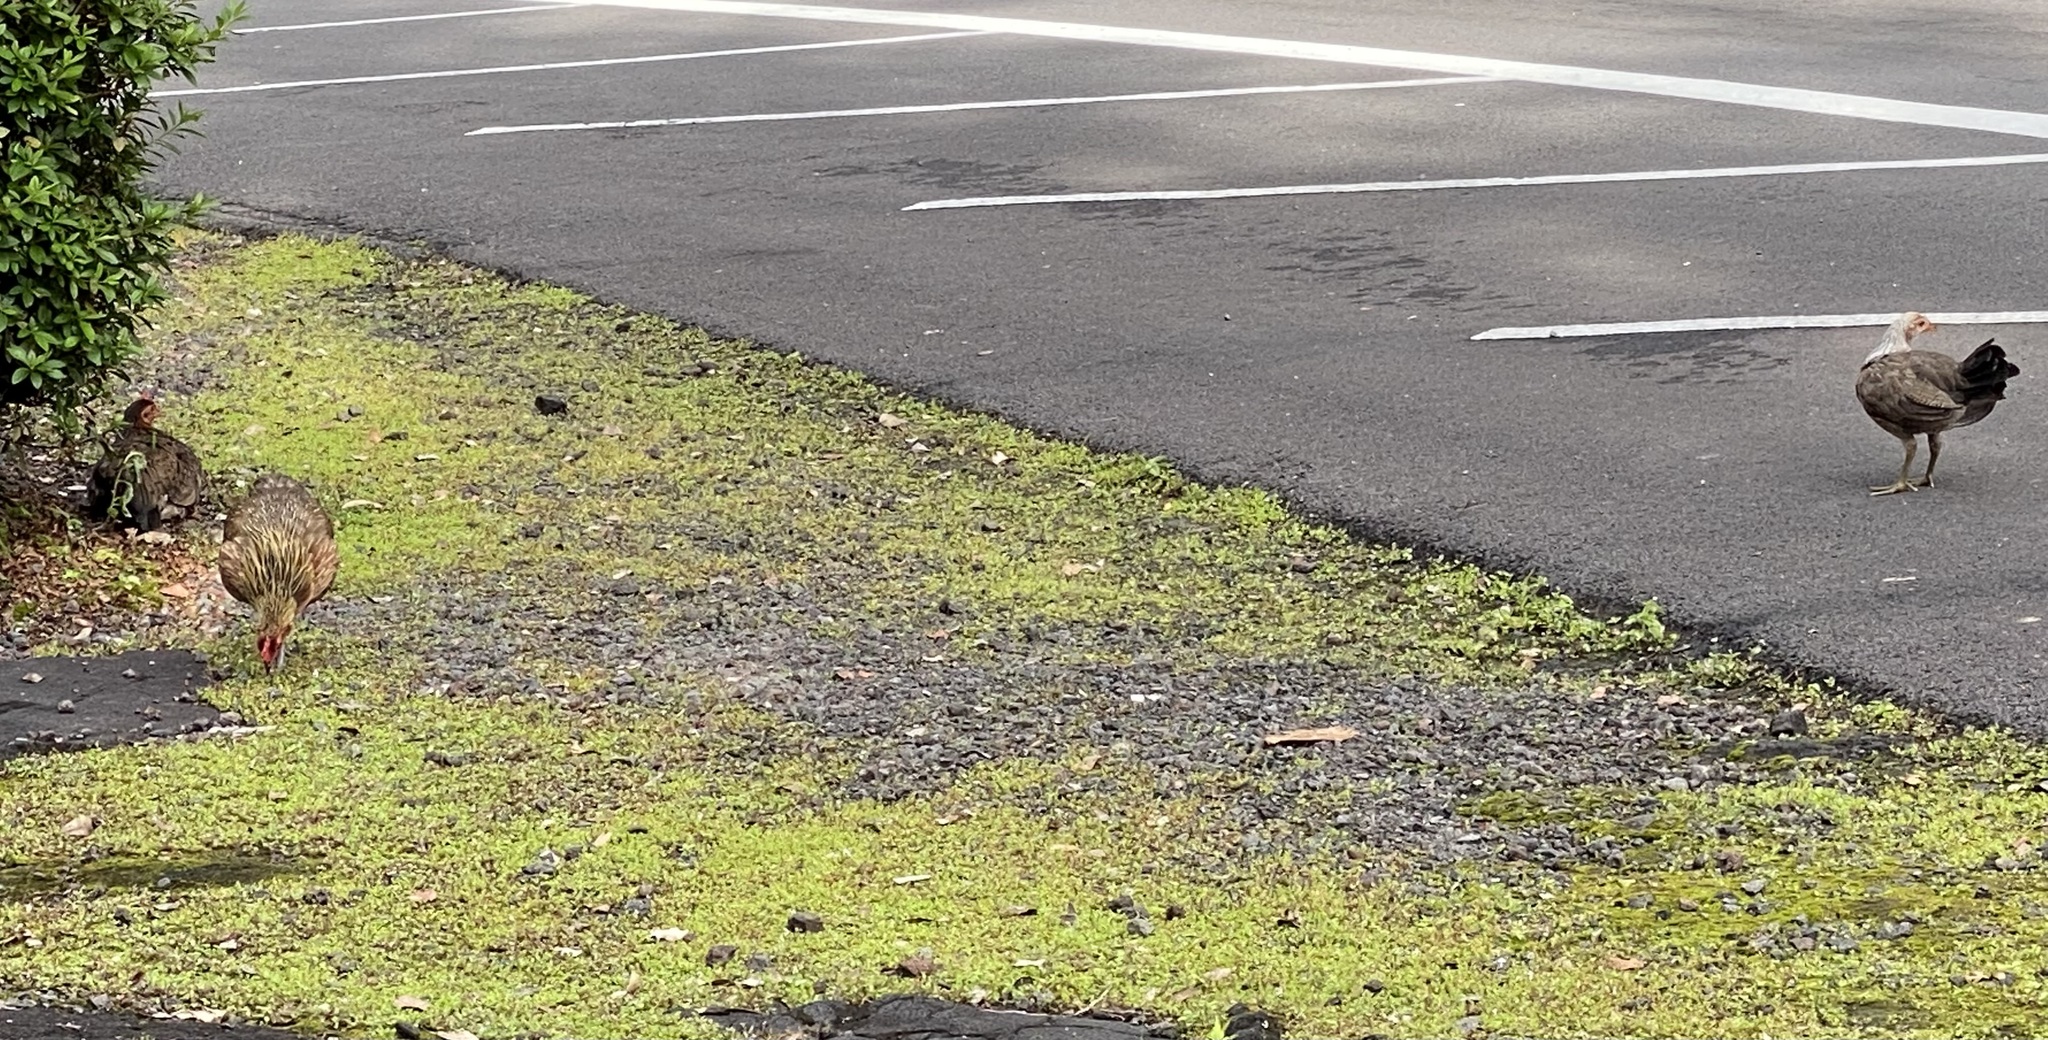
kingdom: Animalia
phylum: Chordata
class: Aves
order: Galliformes
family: Phasianidae
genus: Gallus
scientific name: Gallus gallus
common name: Red junglefowl
